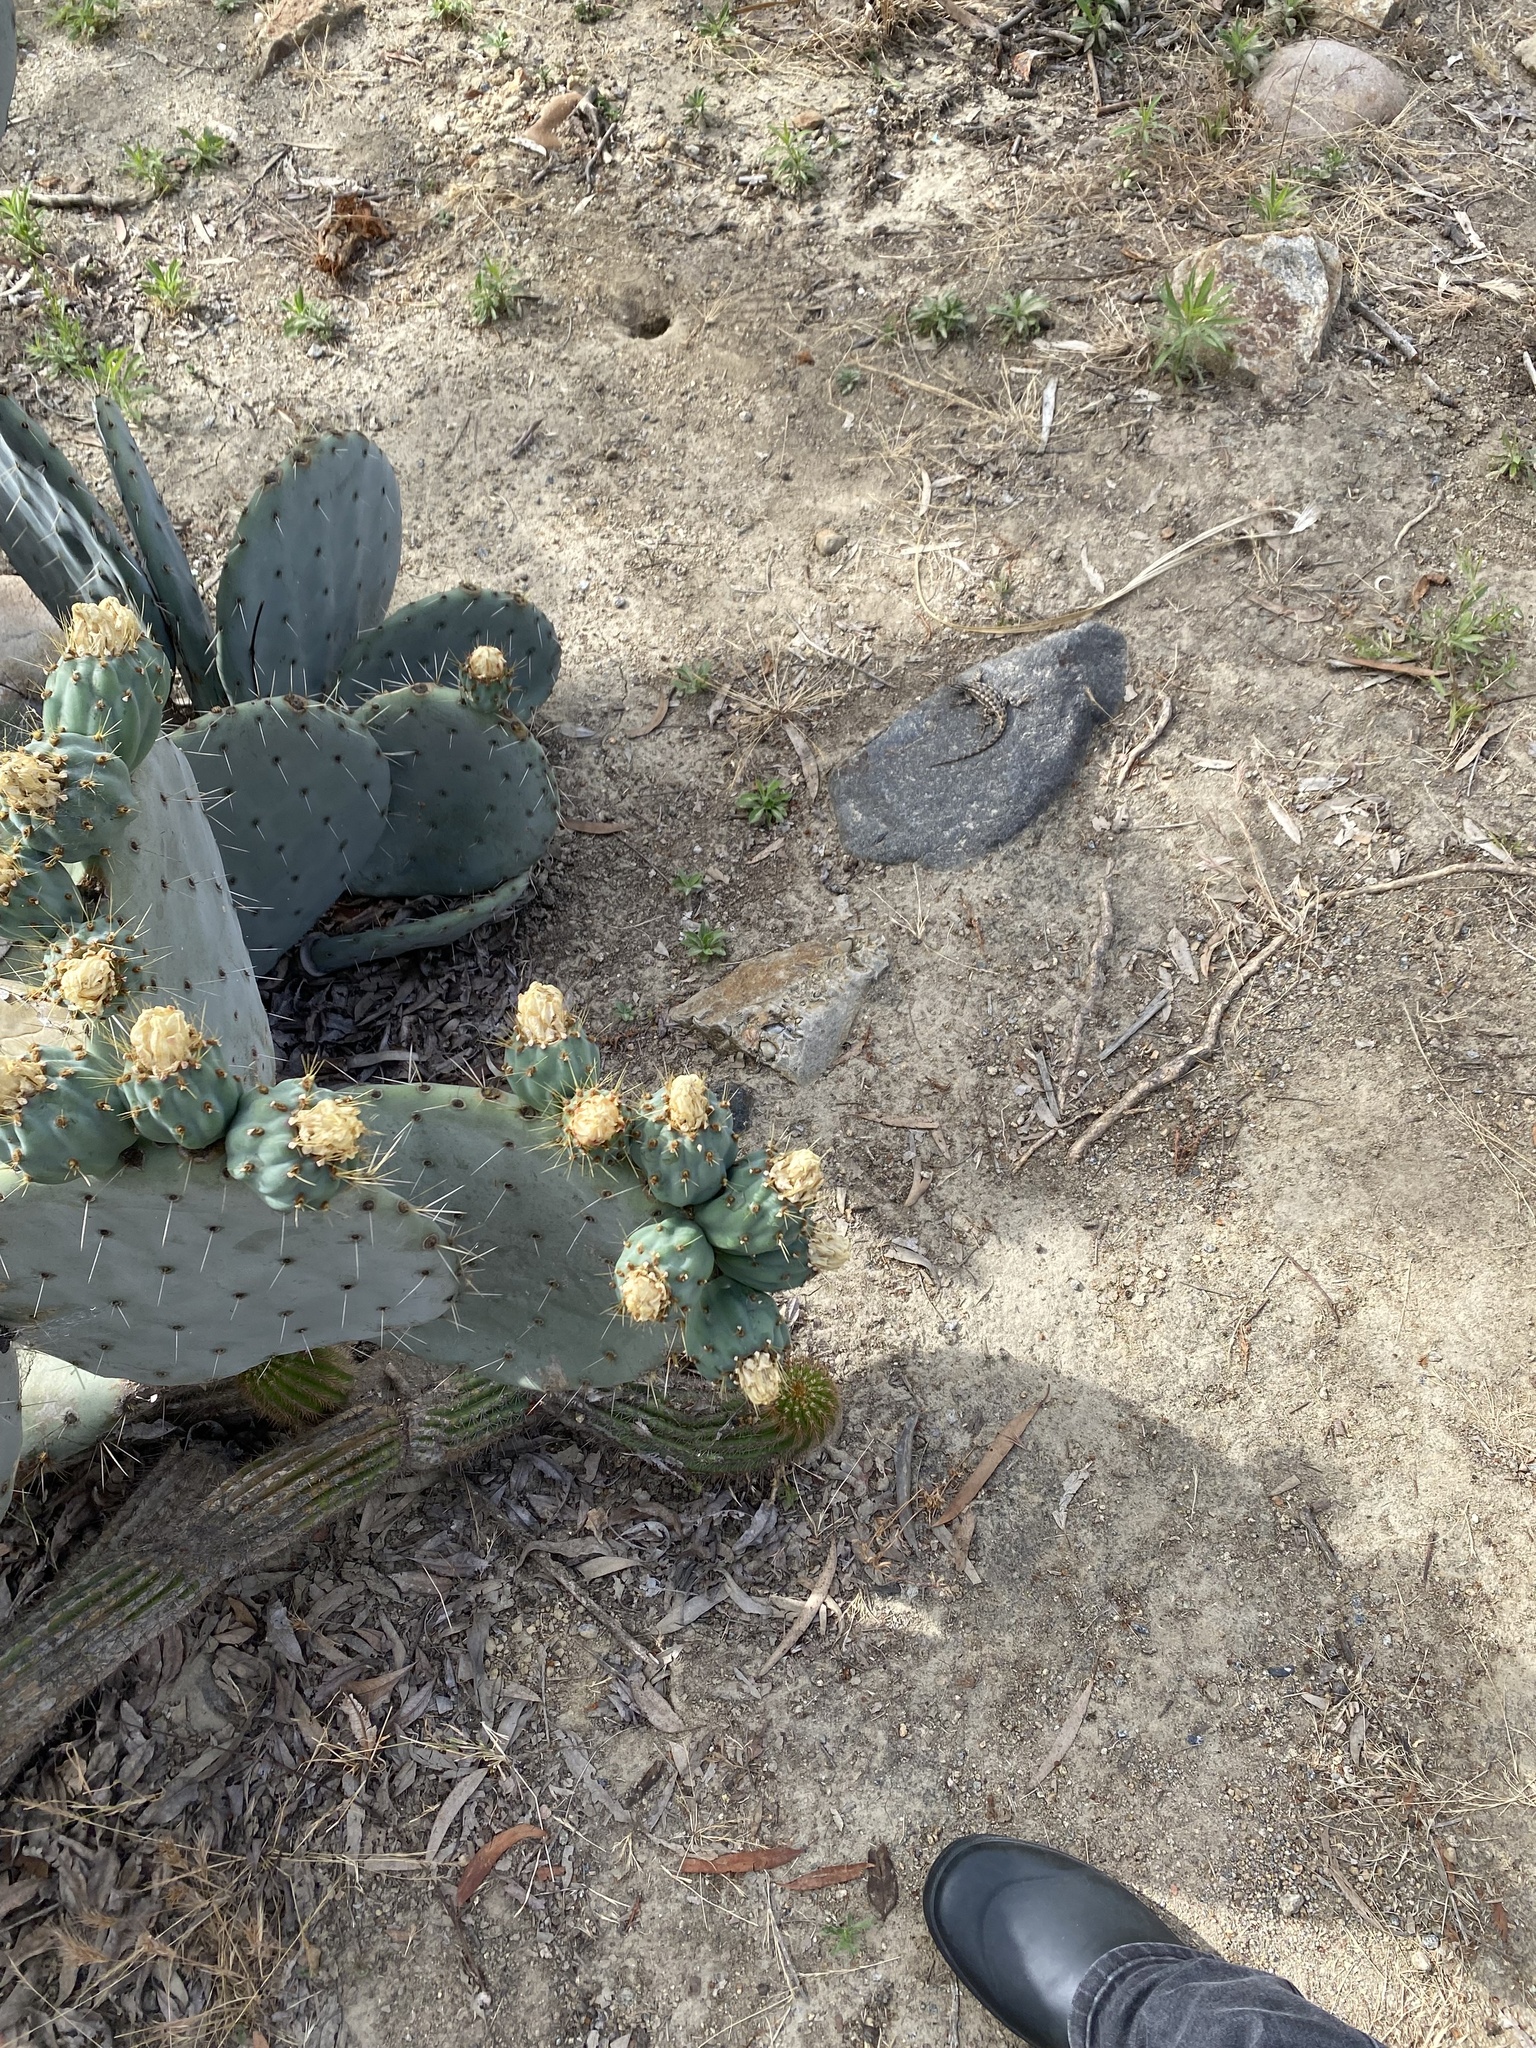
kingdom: Animalia
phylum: Chordata
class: Squamata
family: Phrynosomatidae
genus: Sceloporus
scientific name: Sceloporus occidentalis
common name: Western fence lizard
